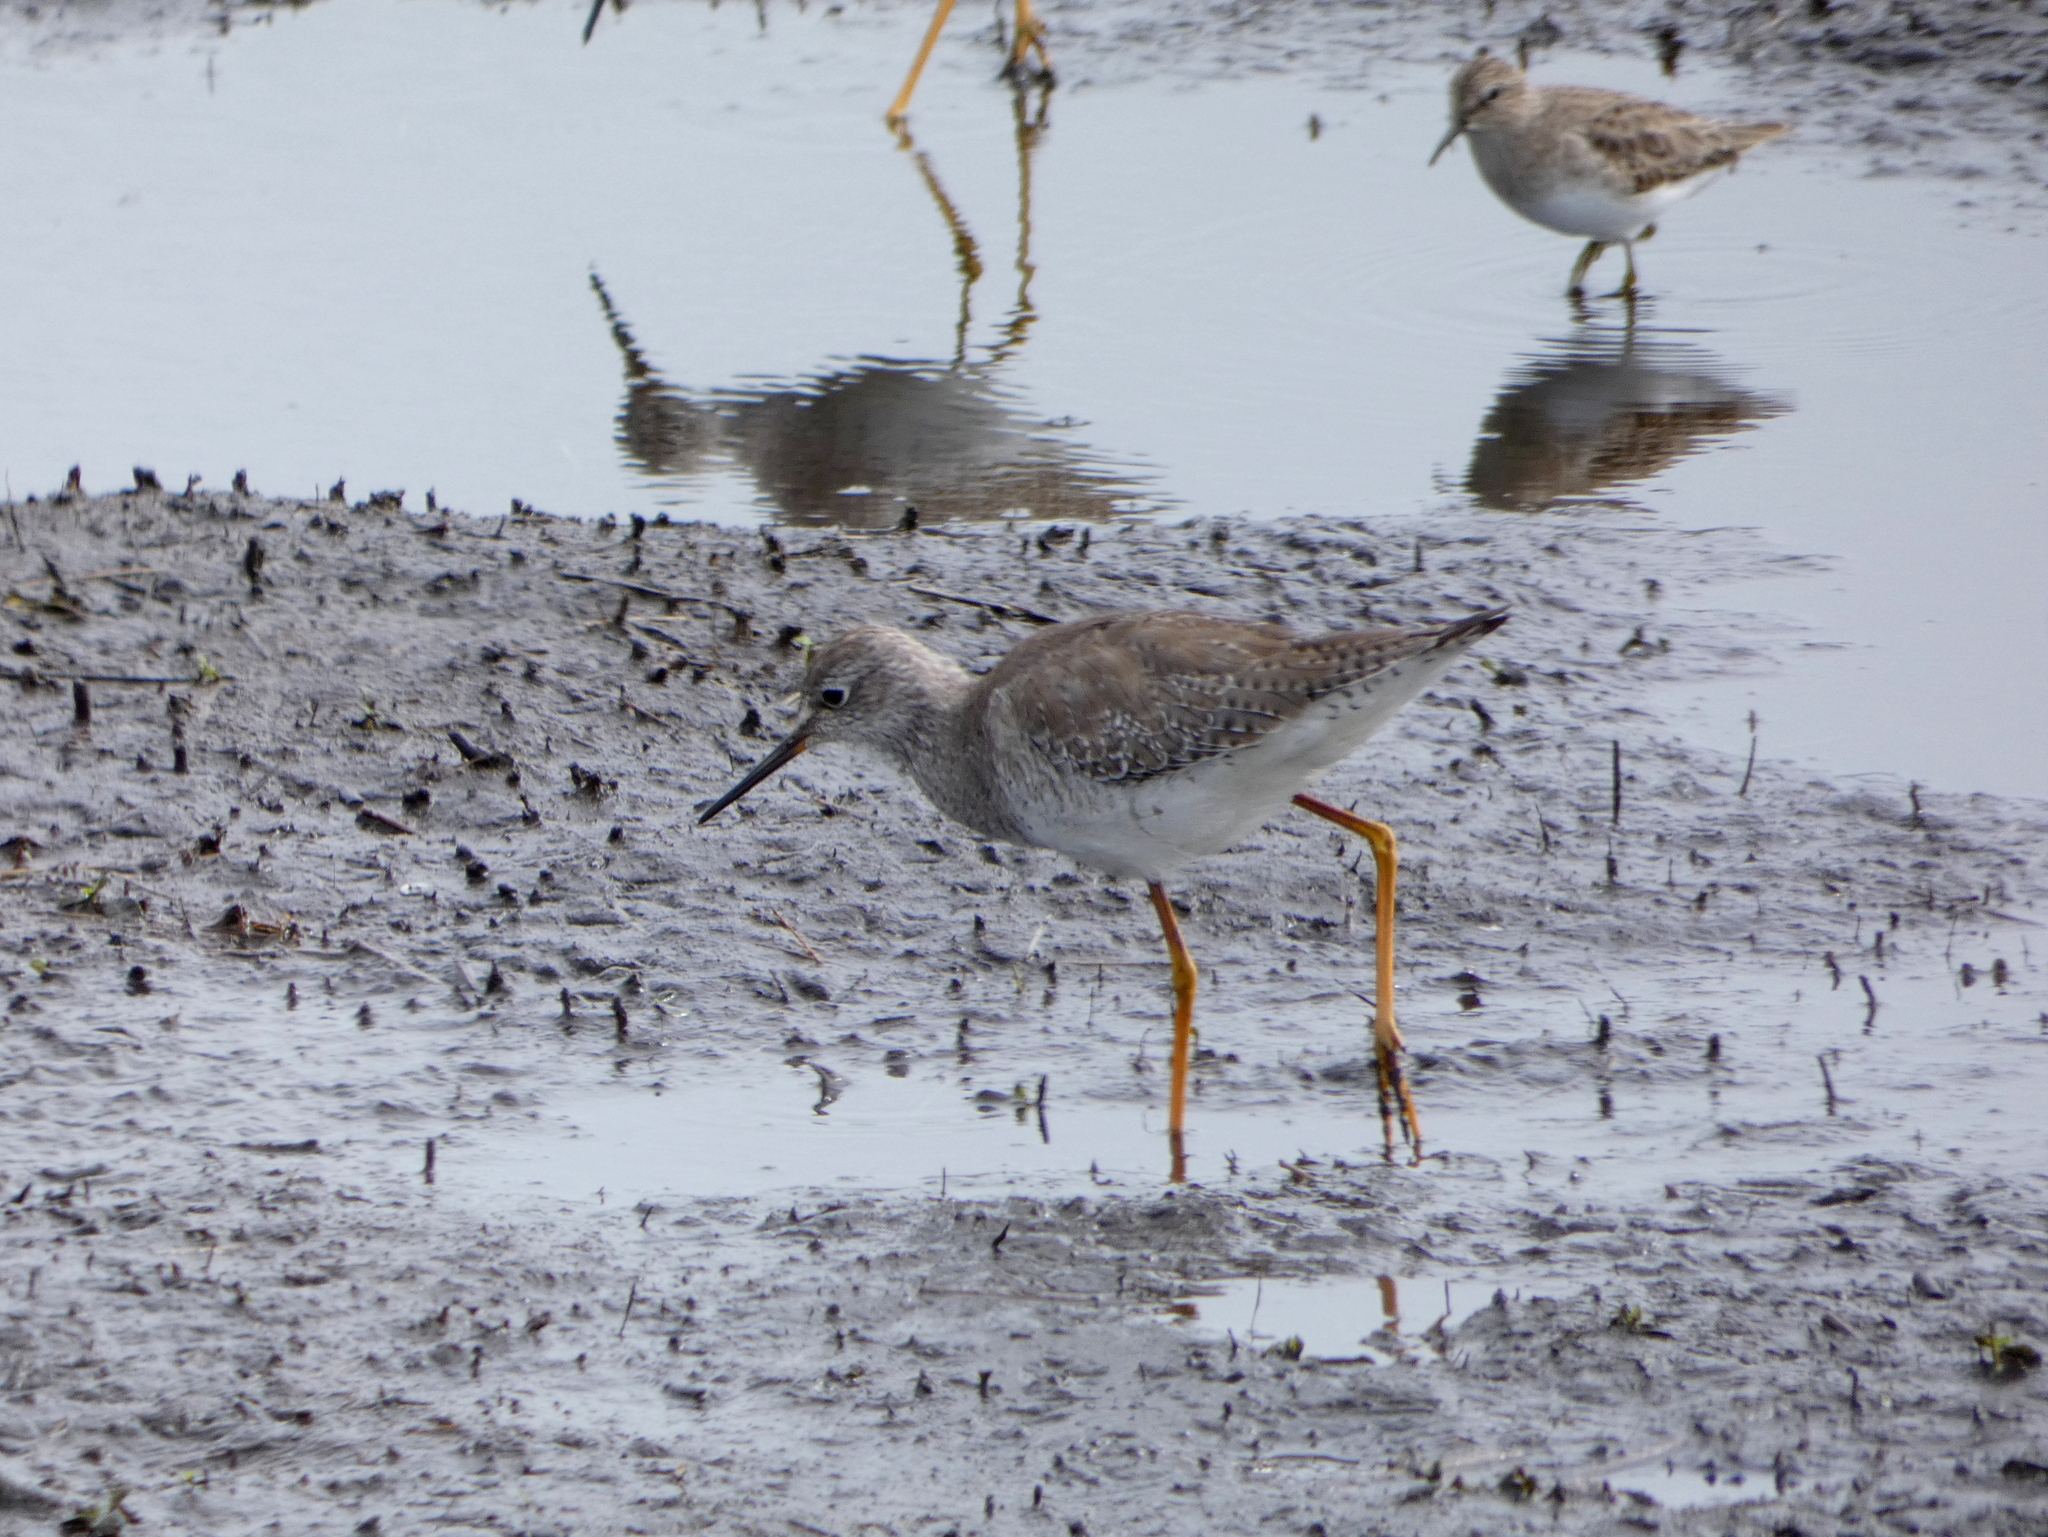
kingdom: Animalia
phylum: Chordata
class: Aves
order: Charadriiformes
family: Scolopacidae
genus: Tringa
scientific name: Tringa flavipes
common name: Lesser yellowlegs
